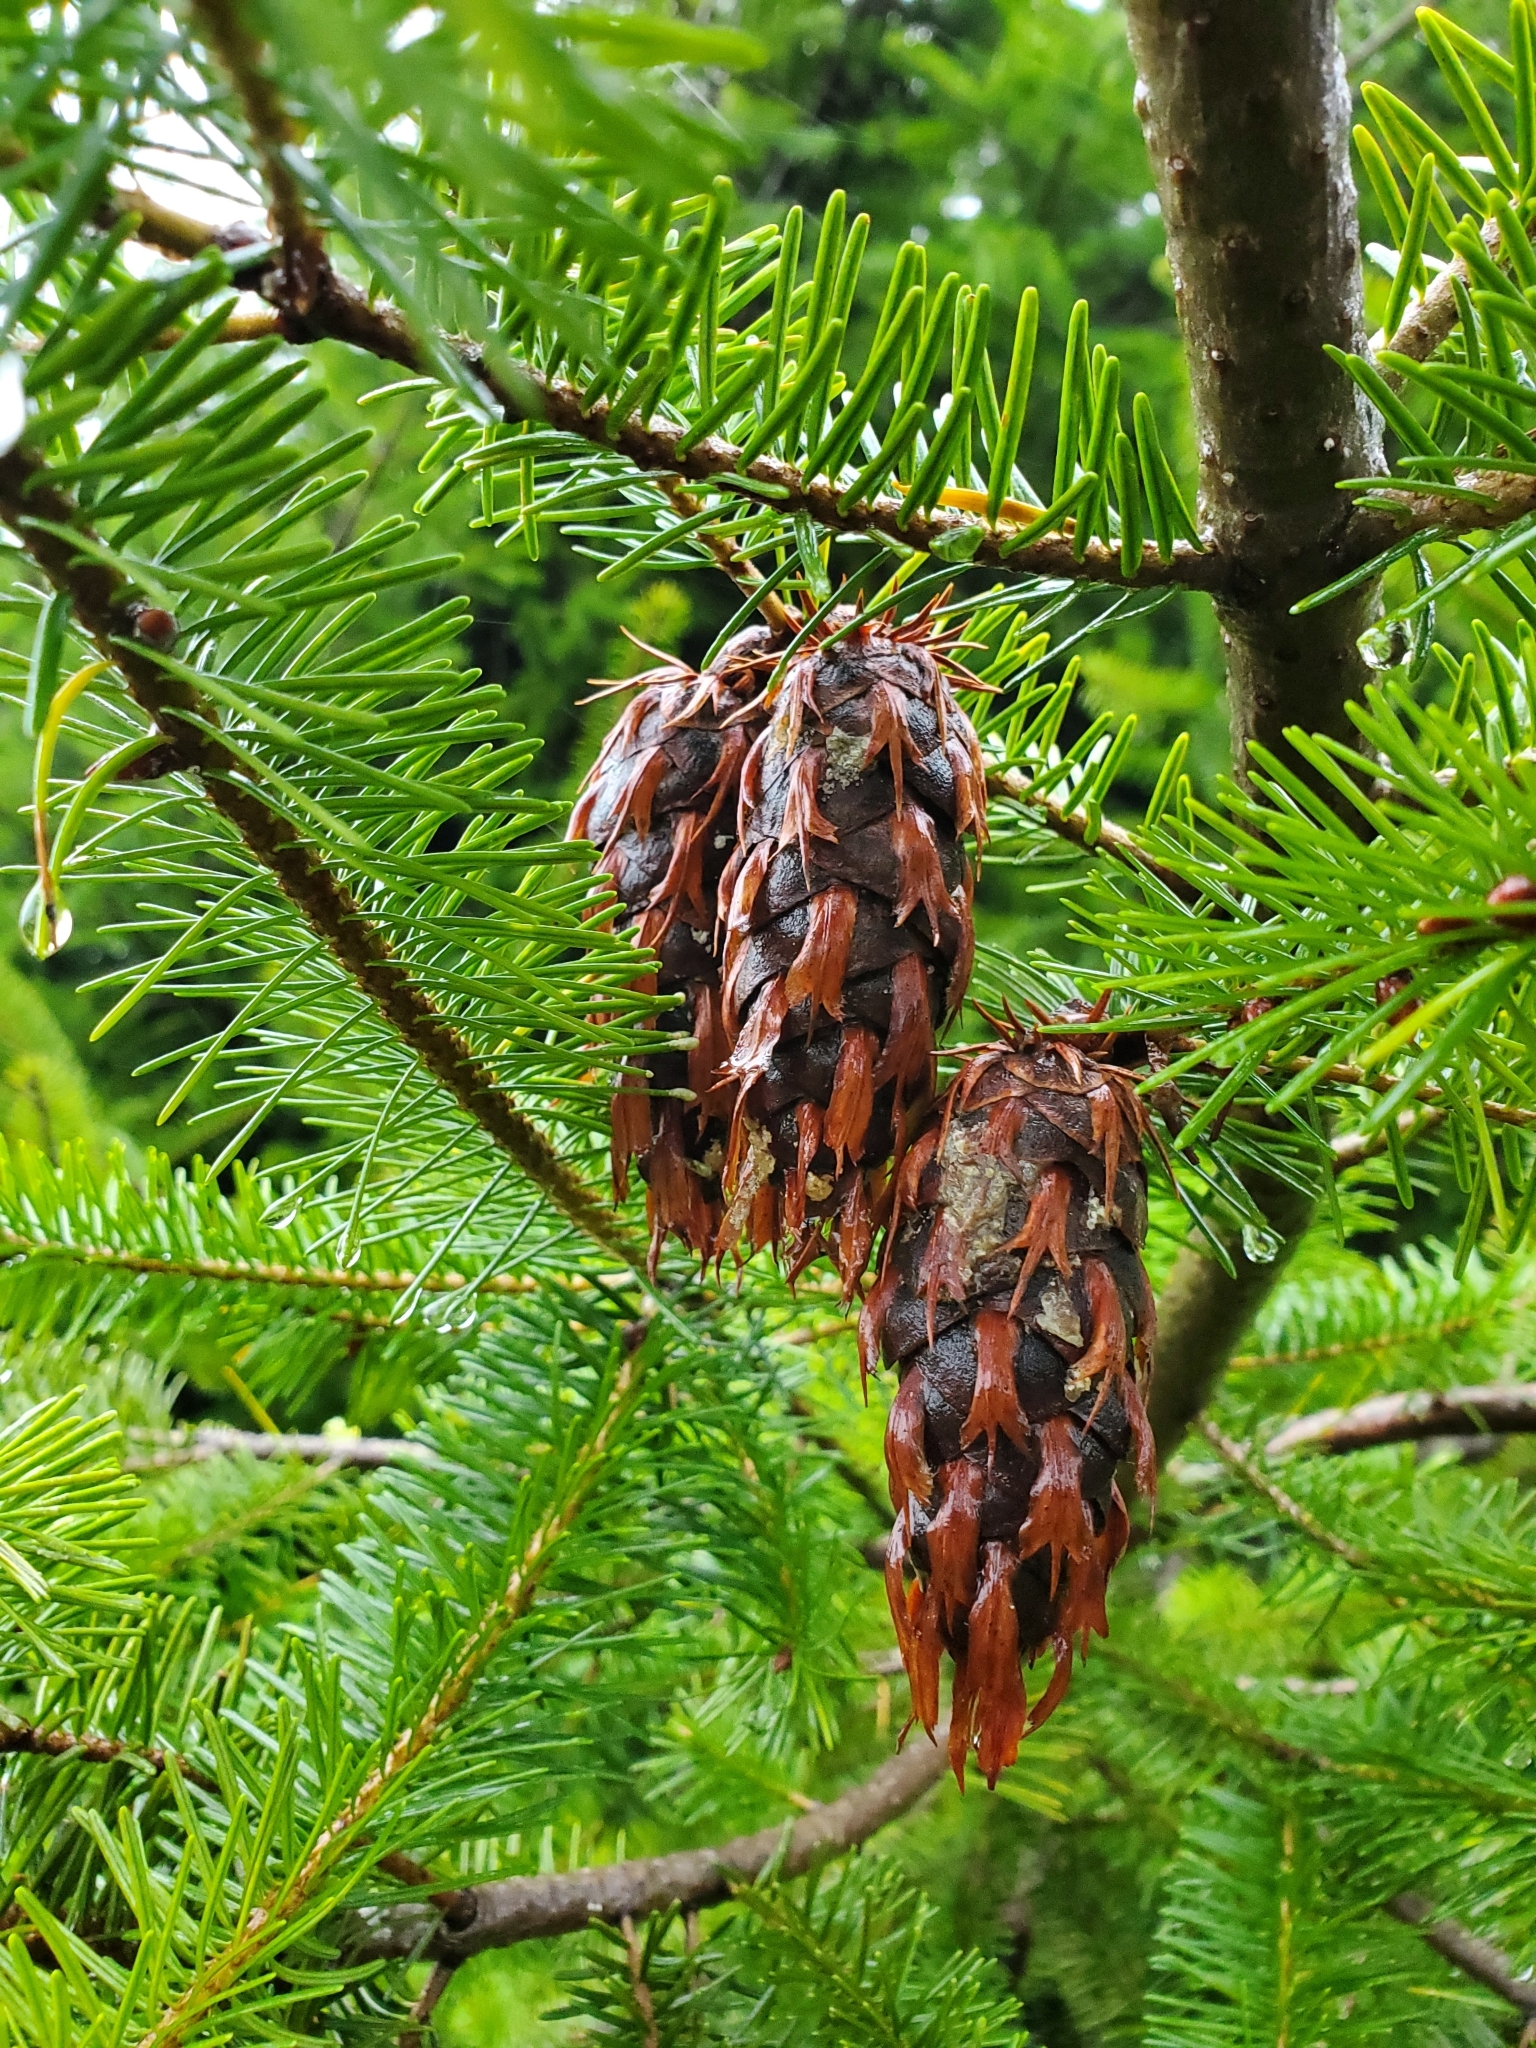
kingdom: Plantae
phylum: Tracheophyta
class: Pinopsida
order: Pinales
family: Pinaceae
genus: Pseudotsuga
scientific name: Pseudotsuga menziesii
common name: Douglas fir
